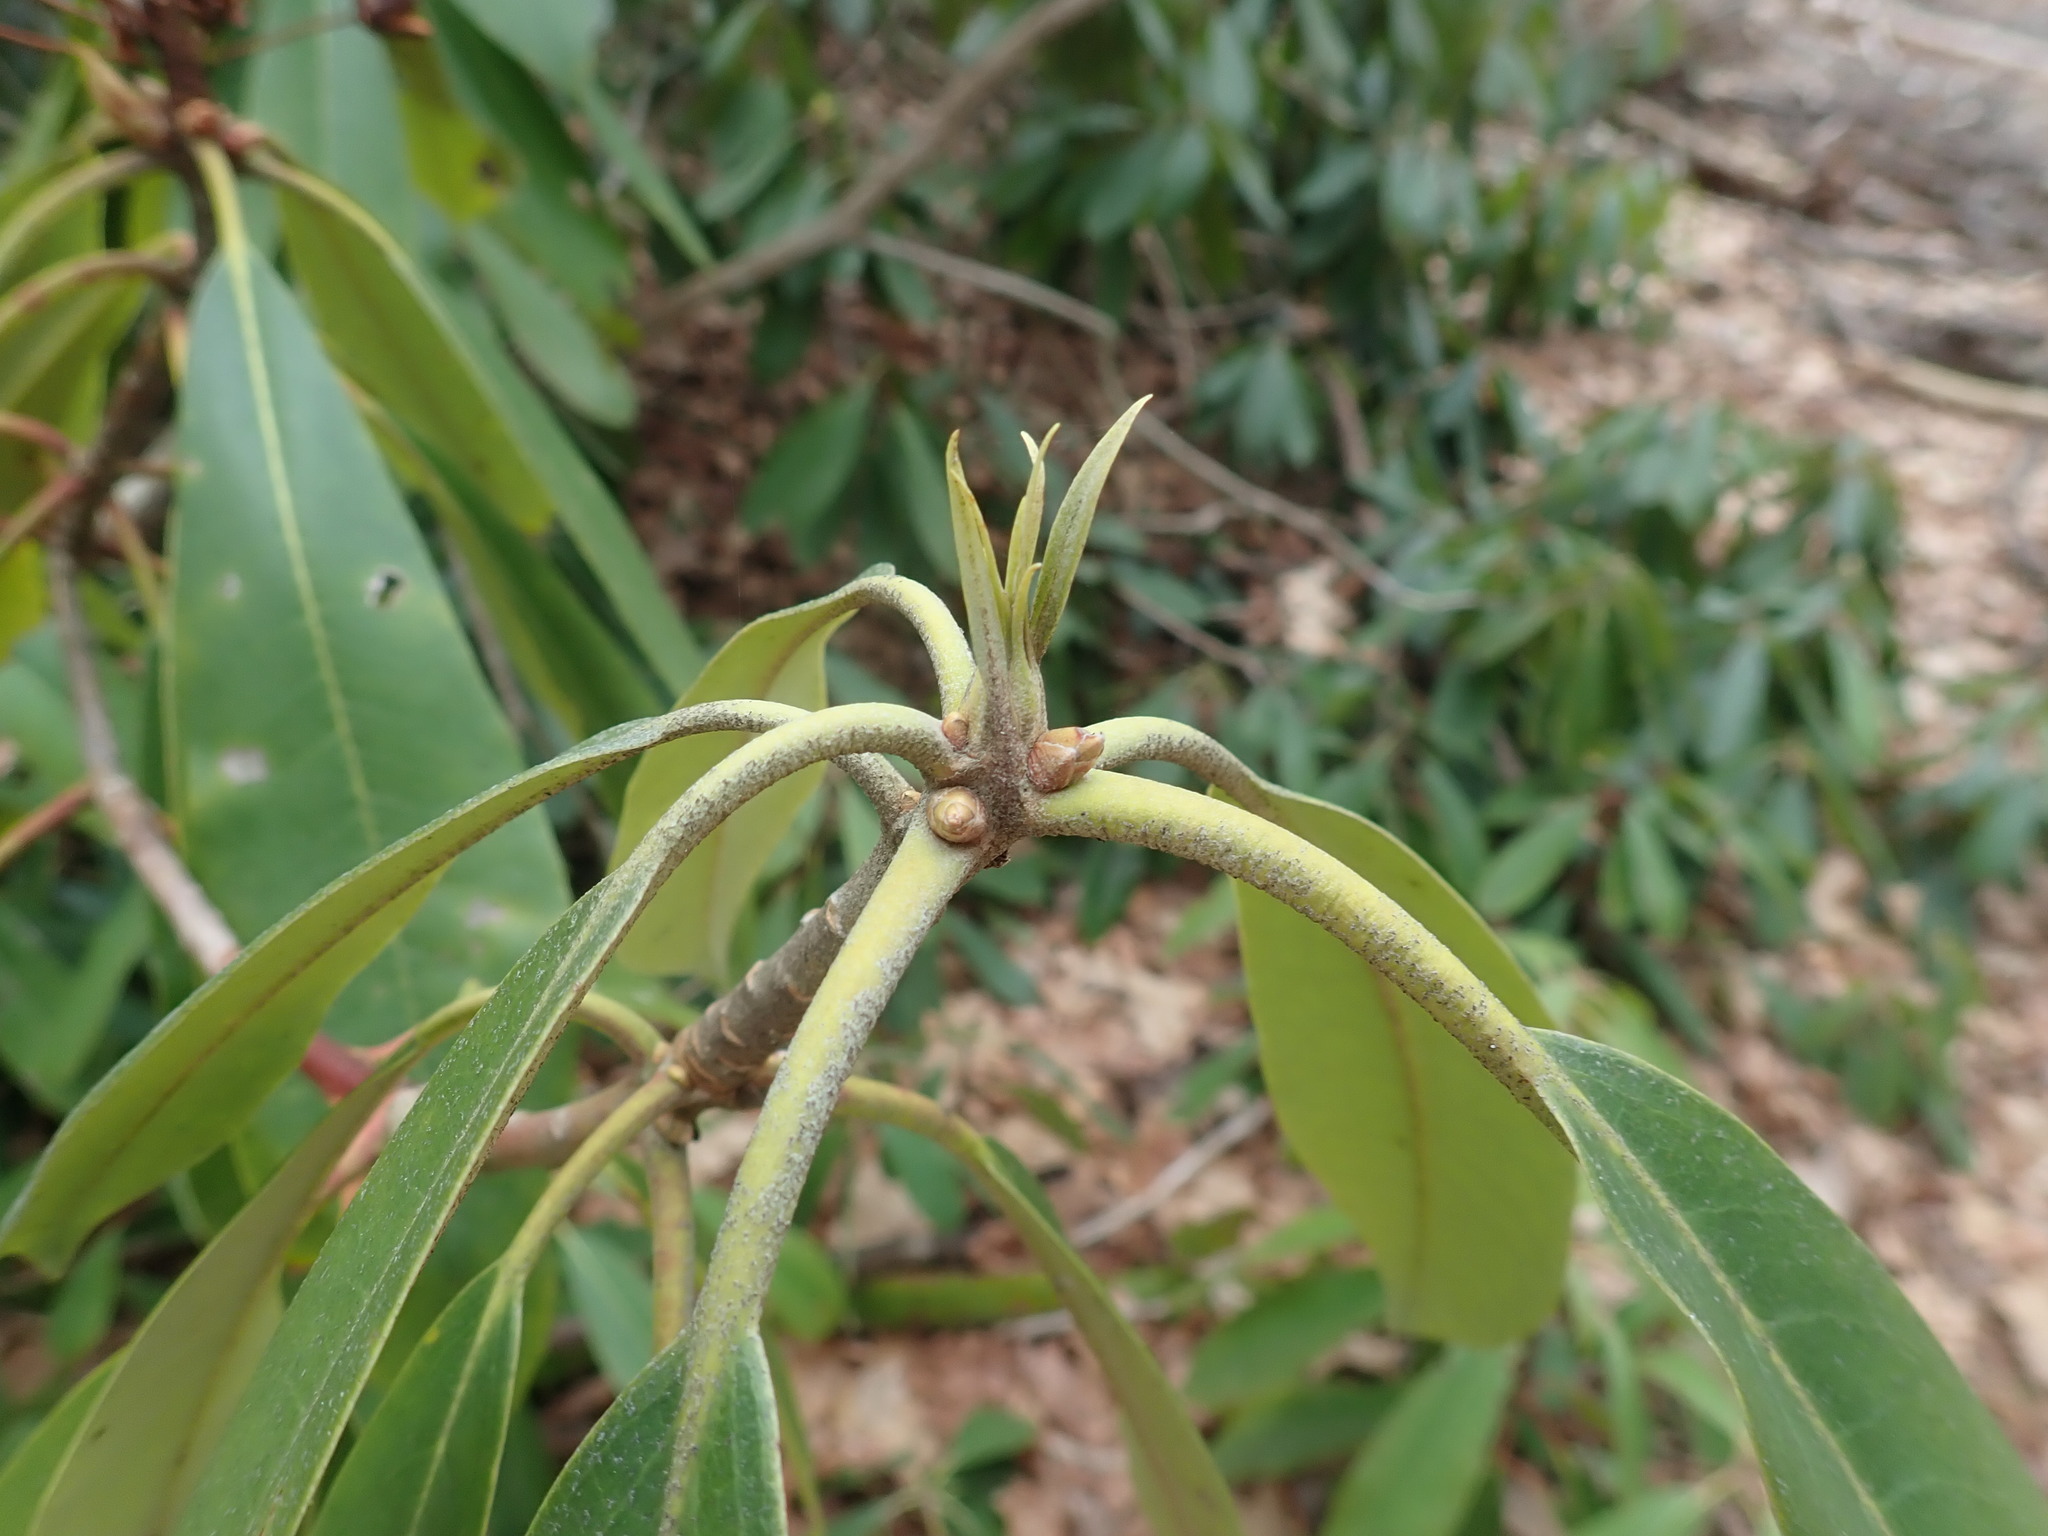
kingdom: Plantae
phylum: Tracheophyta
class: Magnoliopsida
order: Ericales
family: Ericaceae
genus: Rhododendron
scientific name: Rhododendron maximum
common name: Great rhododendron
